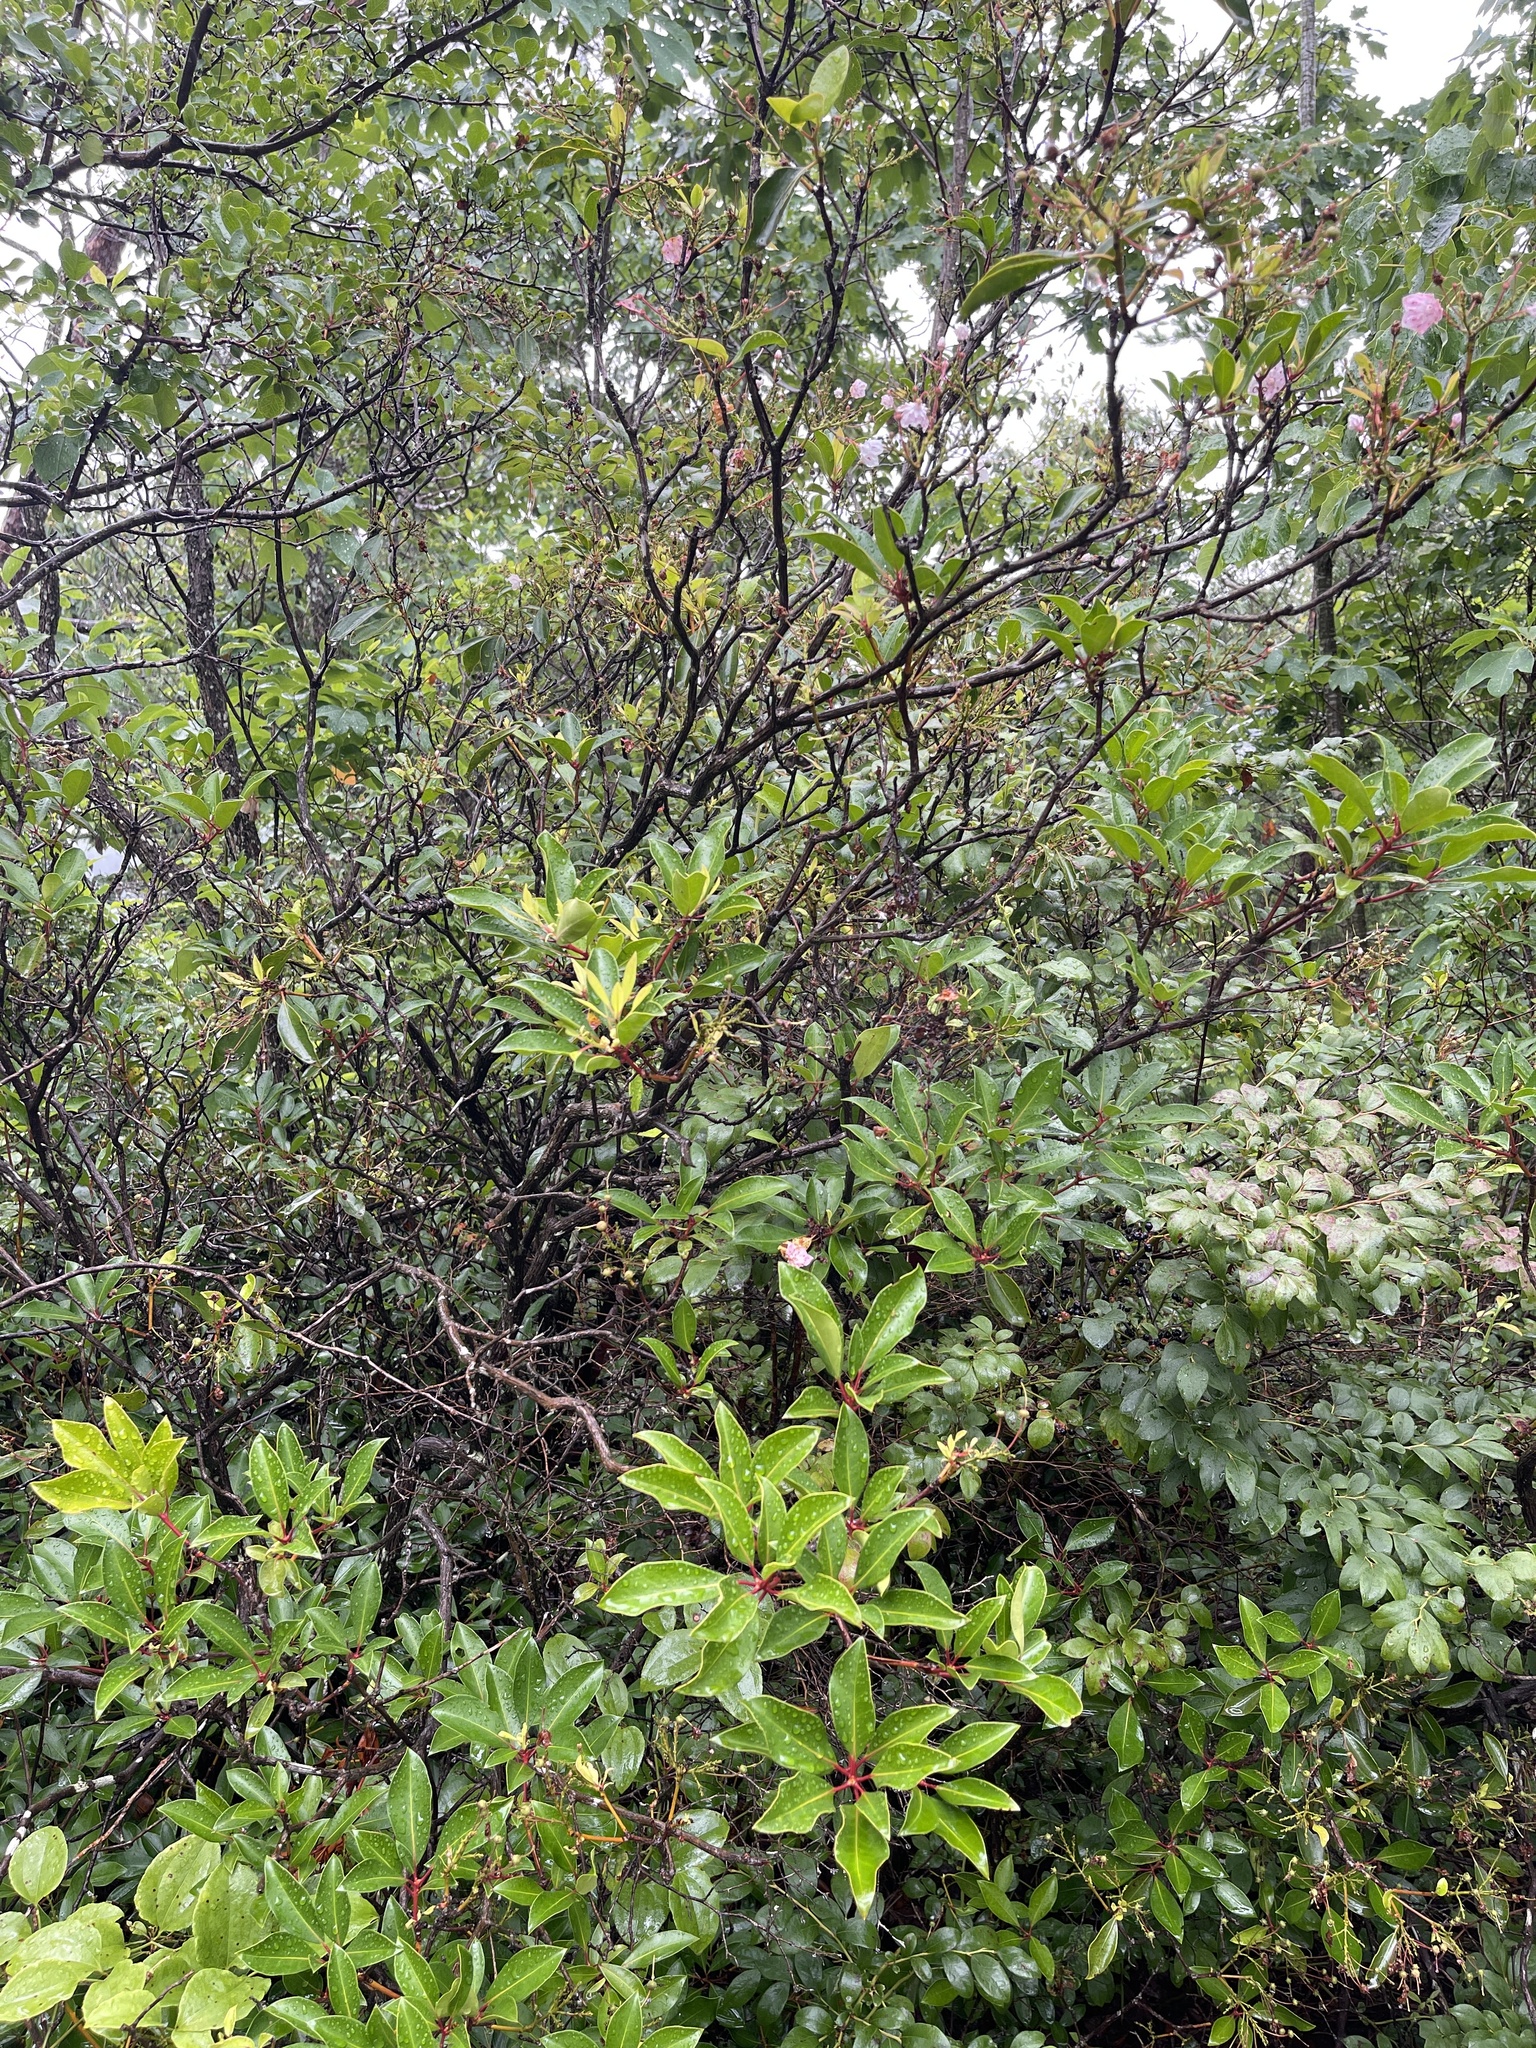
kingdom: Plantae
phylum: Tracheophyta
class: Magnoliopsida
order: Ericales
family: Ericaceae
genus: Kalmia
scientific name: Kalmia latifolia
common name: Mountain-laurel
